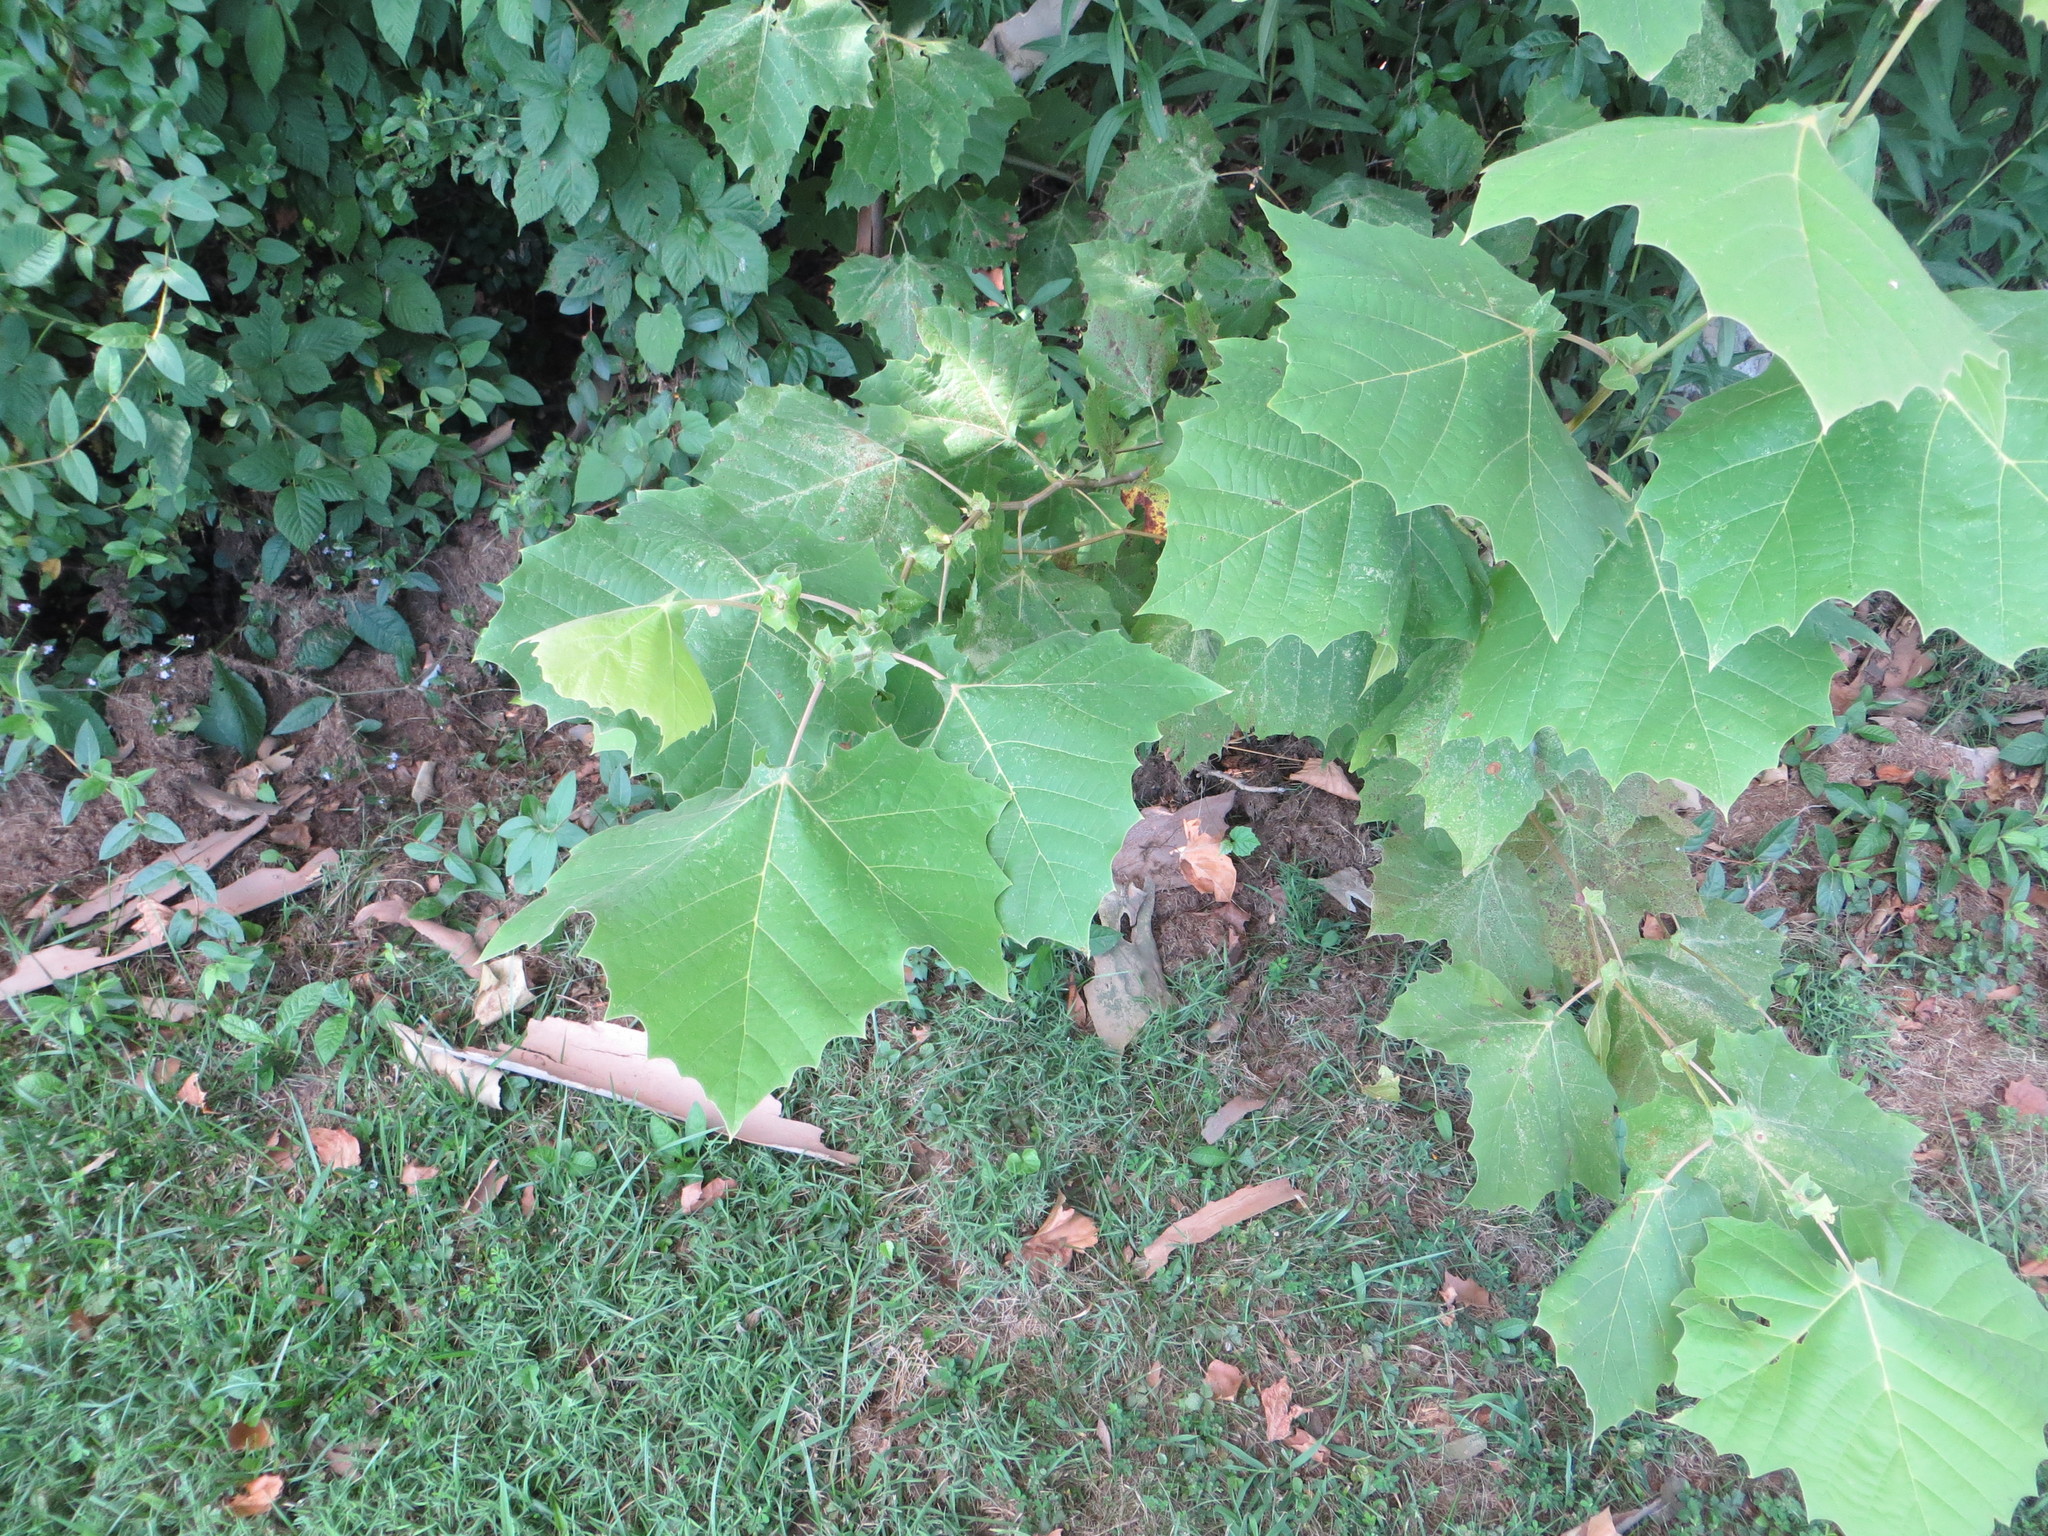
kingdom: Plantae
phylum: Tracheophyta
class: Magnoliopsida
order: Proteales
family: Platanaceae
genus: Platanus
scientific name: Platanus occidentalis
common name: American sycamore
